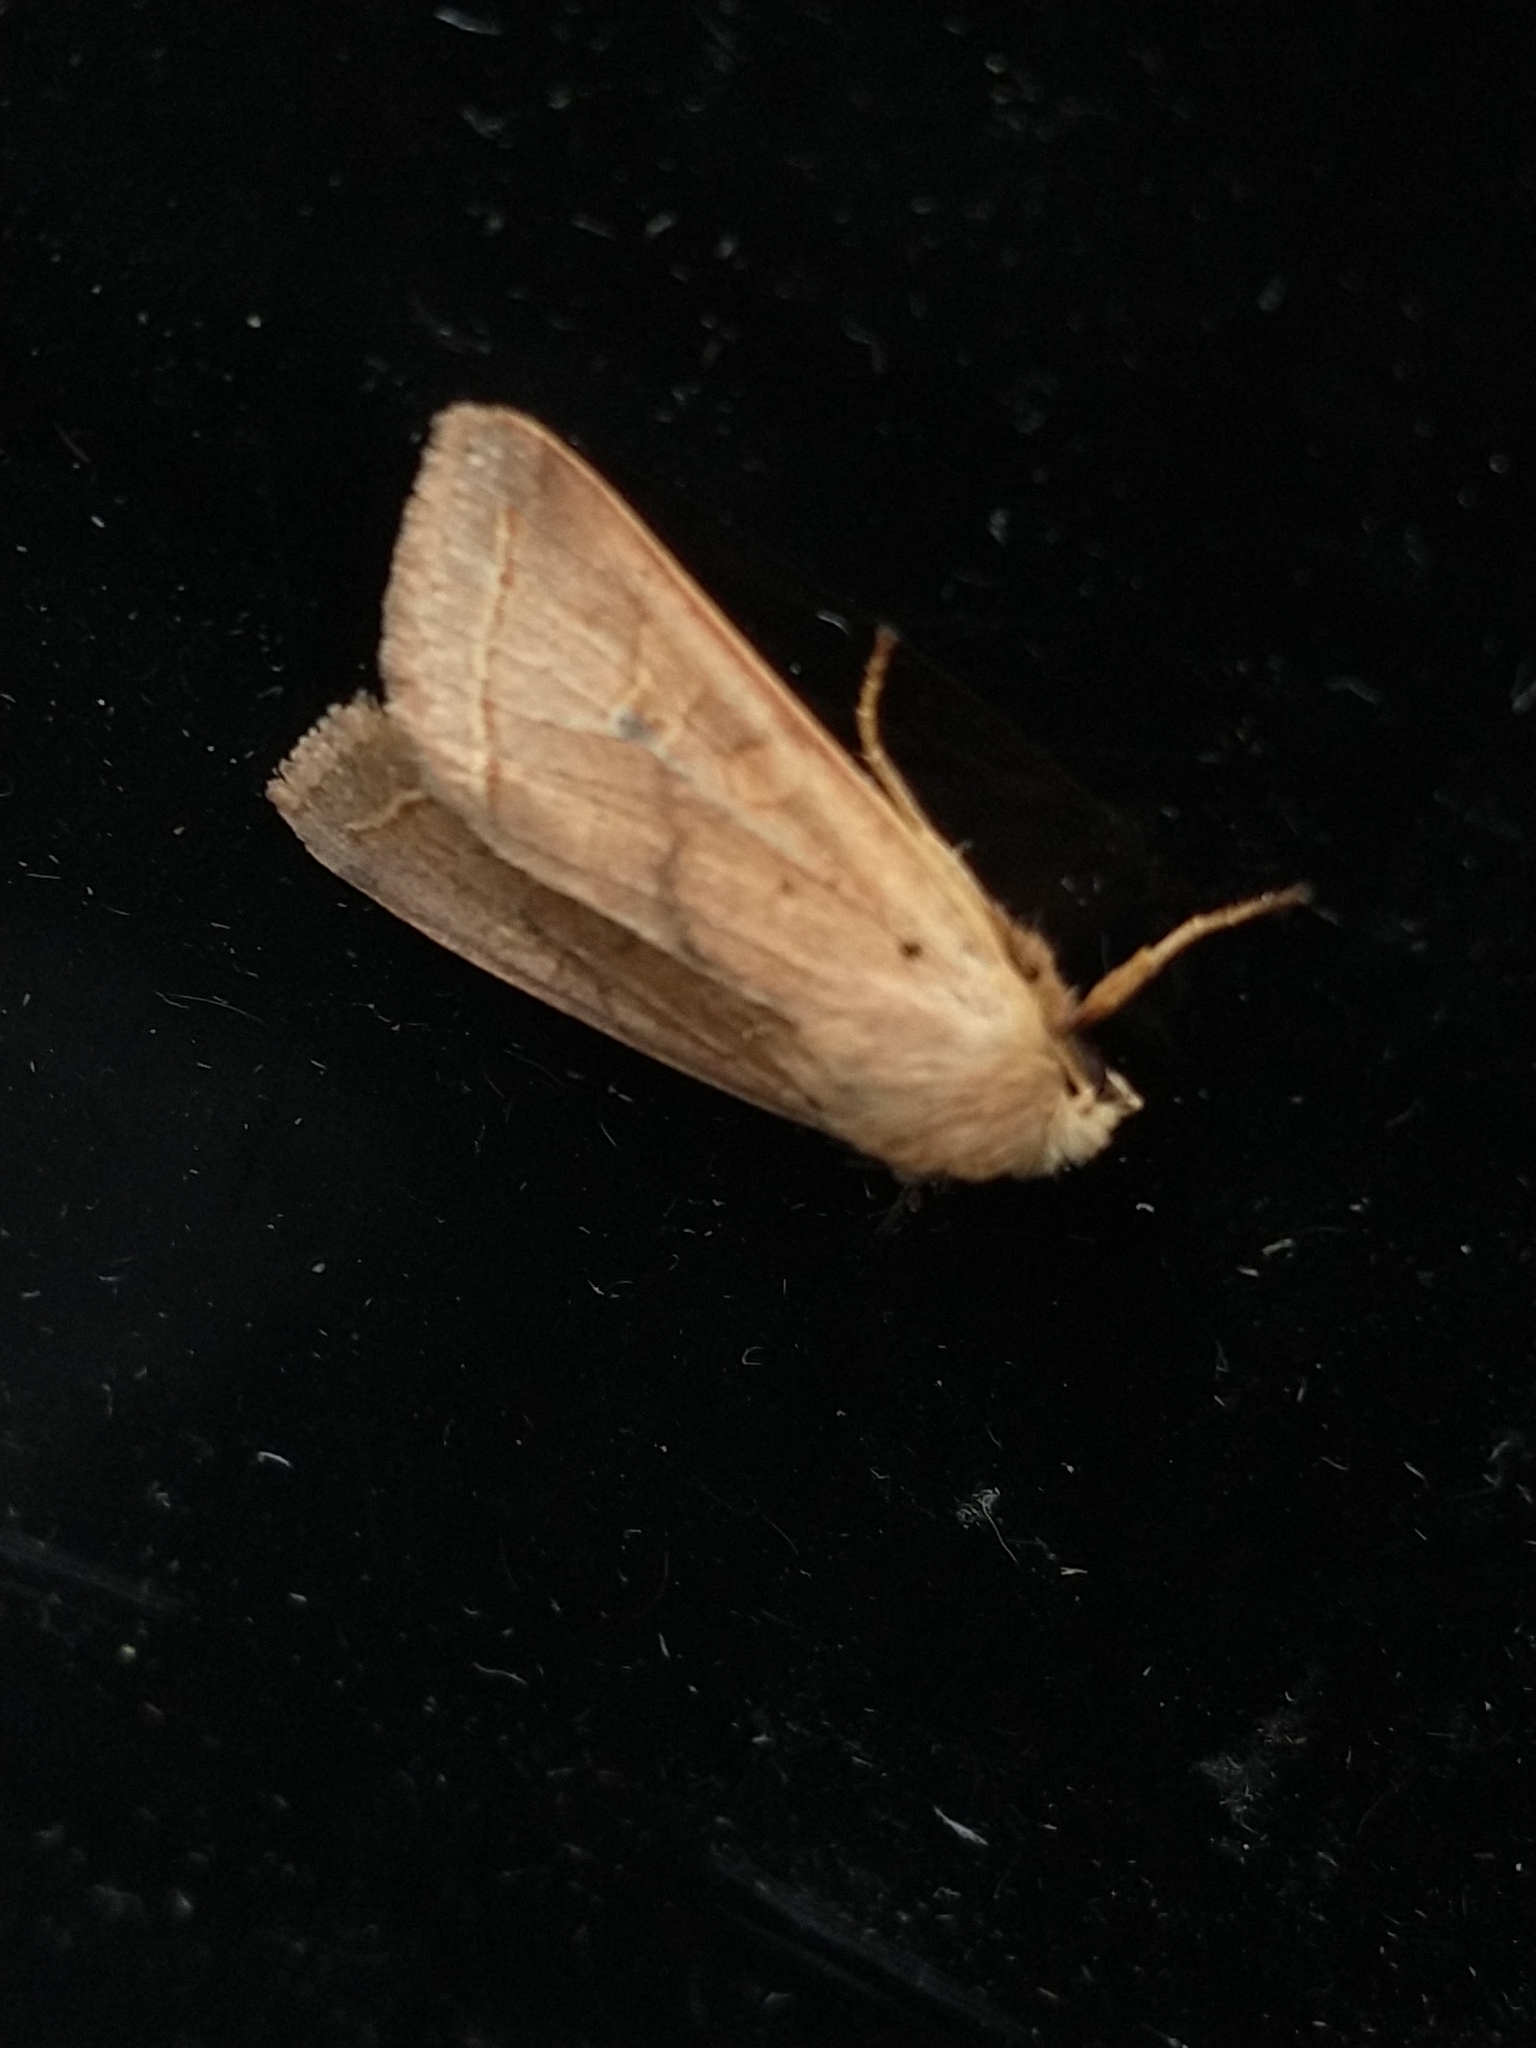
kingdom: Animalia
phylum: Arthropoda
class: Insecta
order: Lepidoptera
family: Noctuidae
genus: Agrochola
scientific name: Agrochola macilenta
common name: Yellow-line quaker
